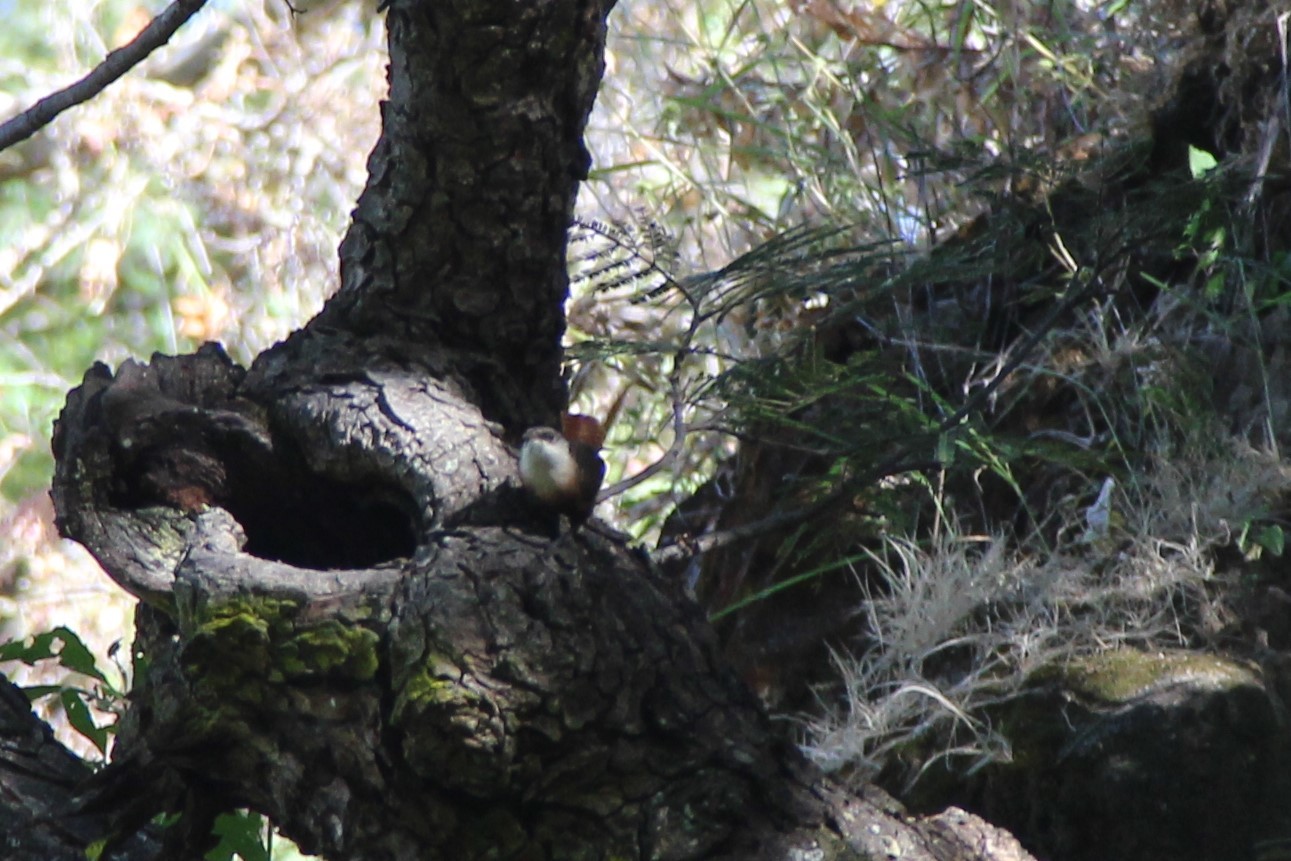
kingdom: Animalia
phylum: Chordata
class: Aves
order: Passeriformes
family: Troglodytidae
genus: Catherpes
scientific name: Catherpes mexicanus
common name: Canyon wren
